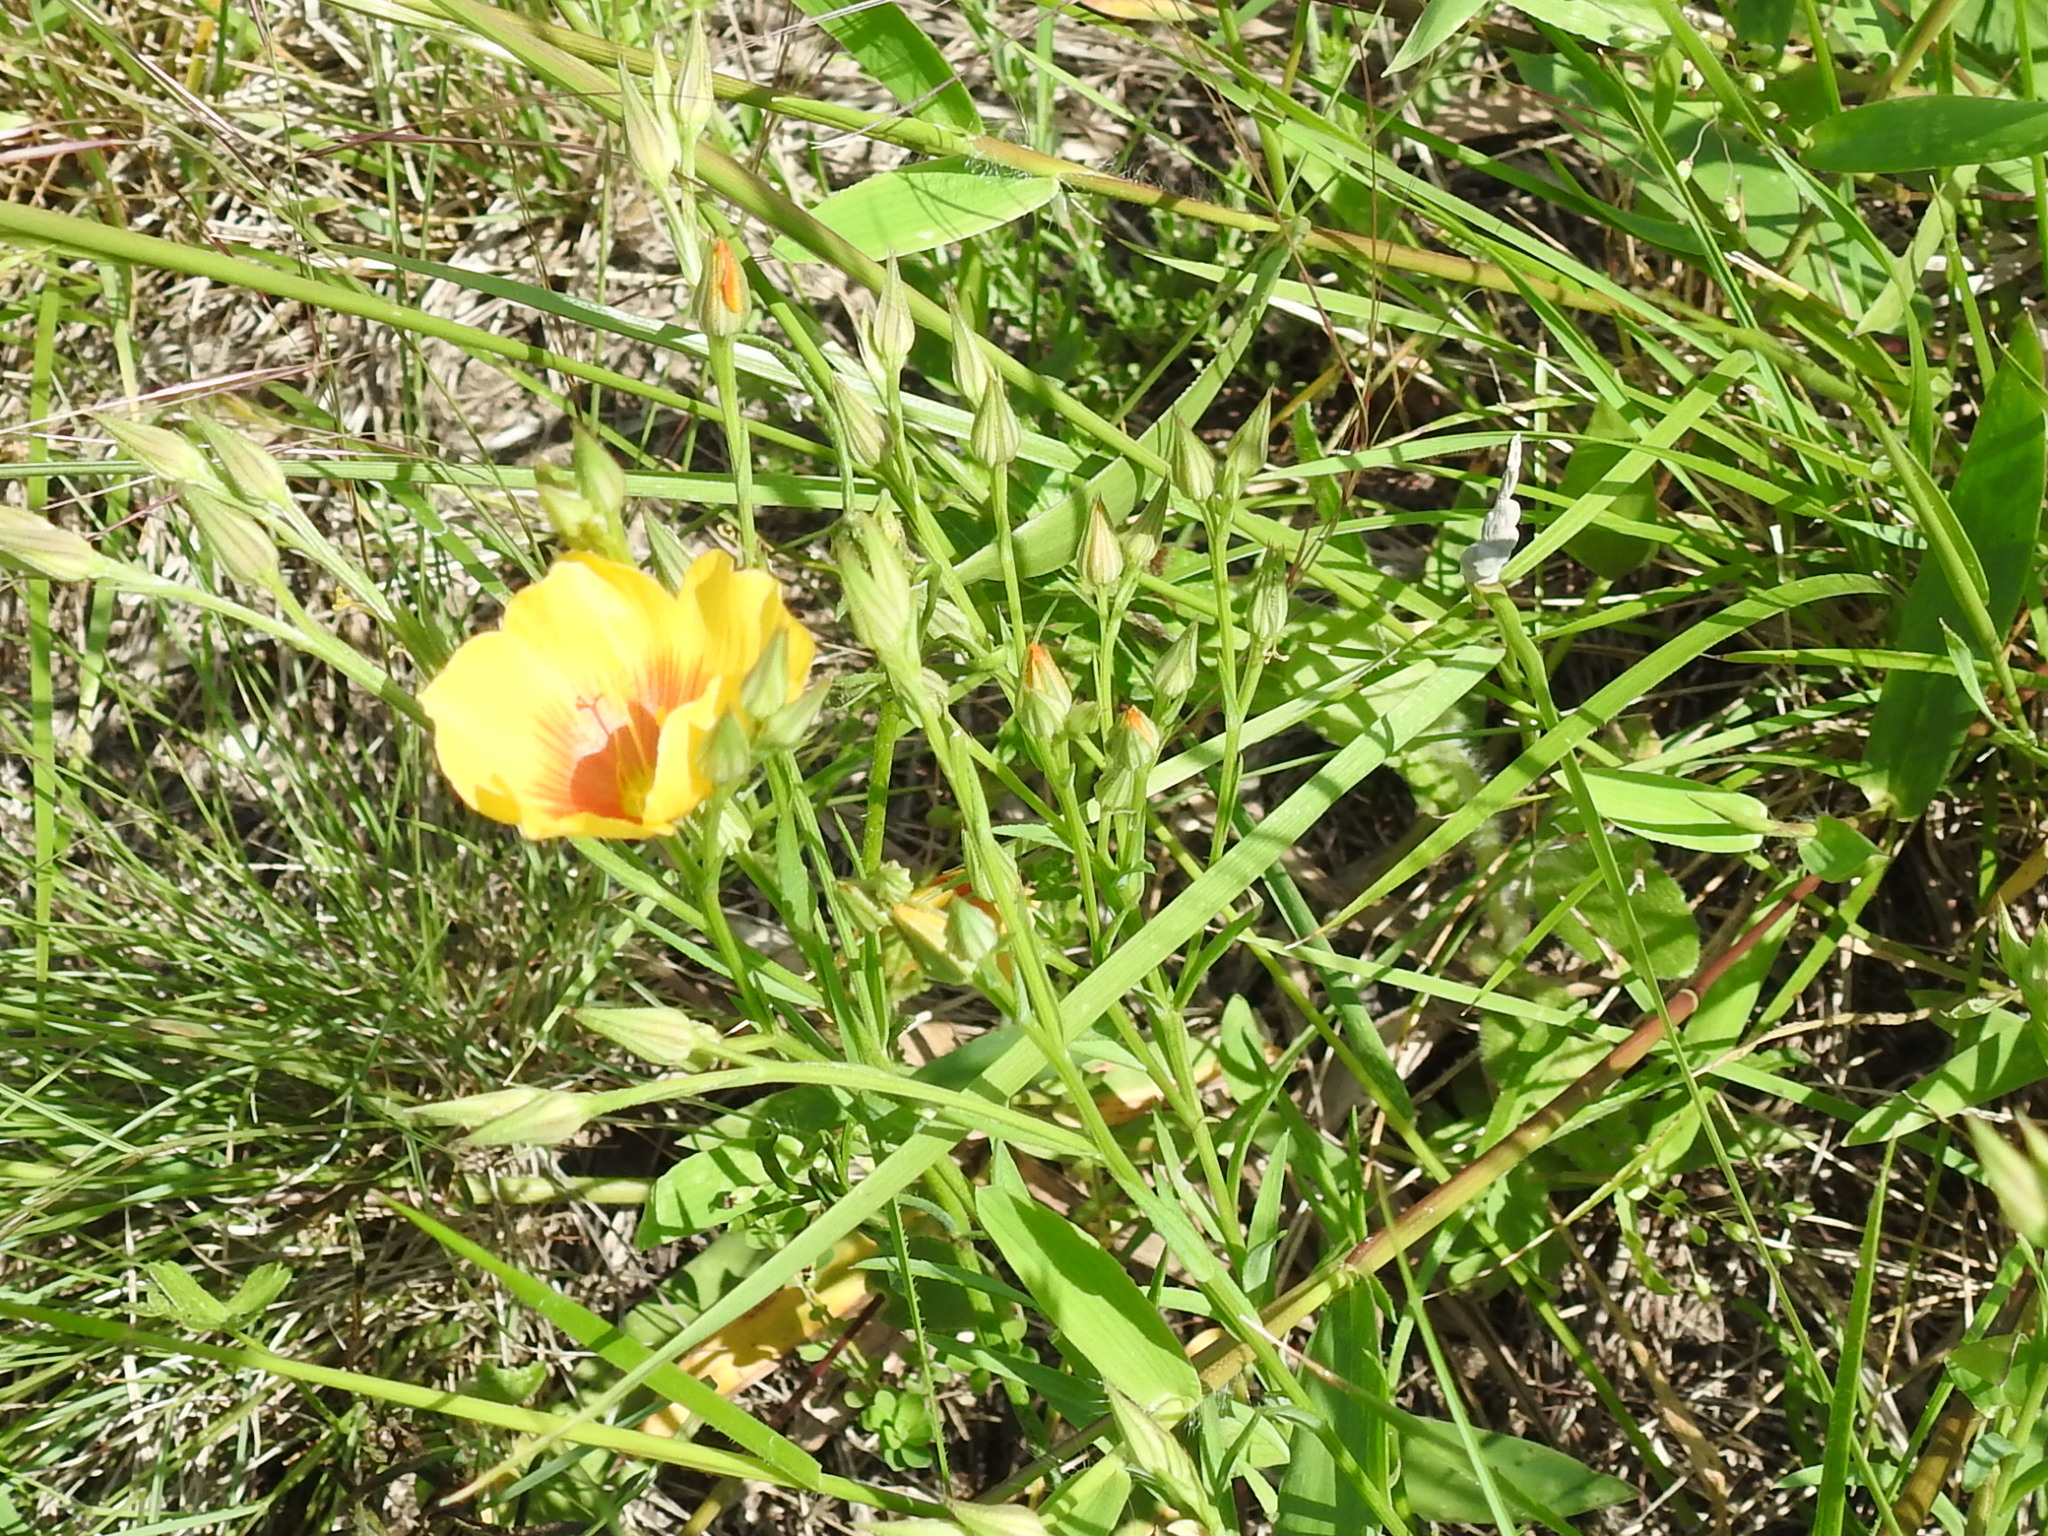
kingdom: Plantae
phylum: Tracheophyta
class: Magnoliopsida
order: Malpighiales
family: Linaceae
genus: Linum
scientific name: Linum berlandieri
